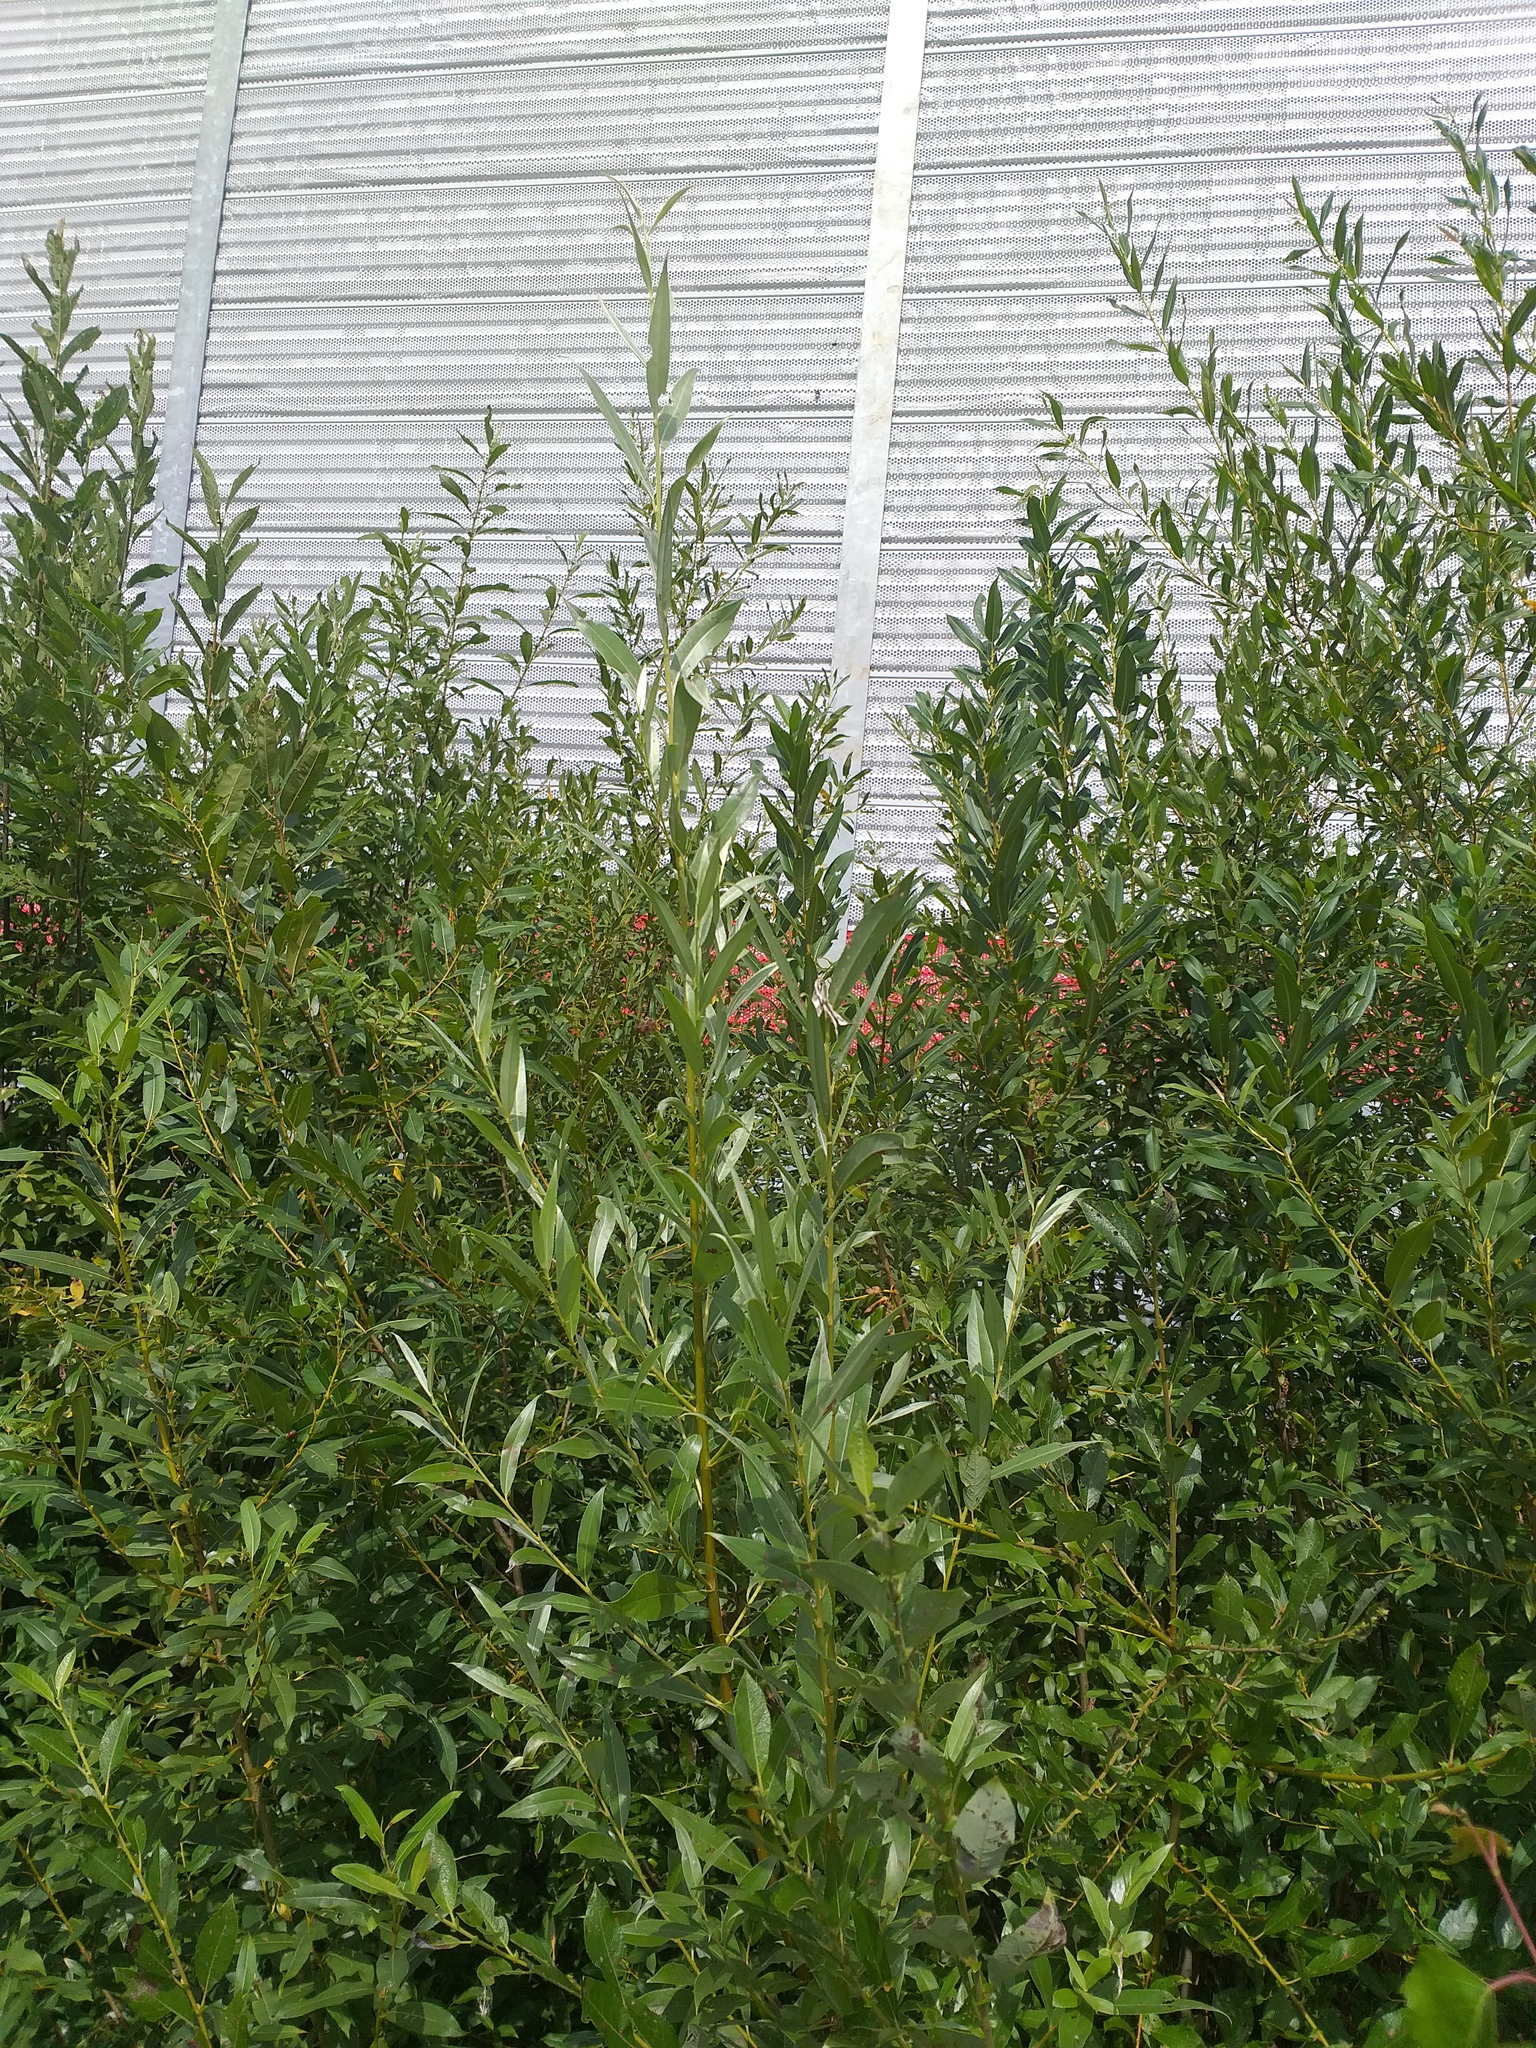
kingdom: Plantae
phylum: Tracheophyta
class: Magnoliopsida
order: Malpighiales
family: Salicaceae
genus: Salix
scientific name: Salix alba
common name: White willow
